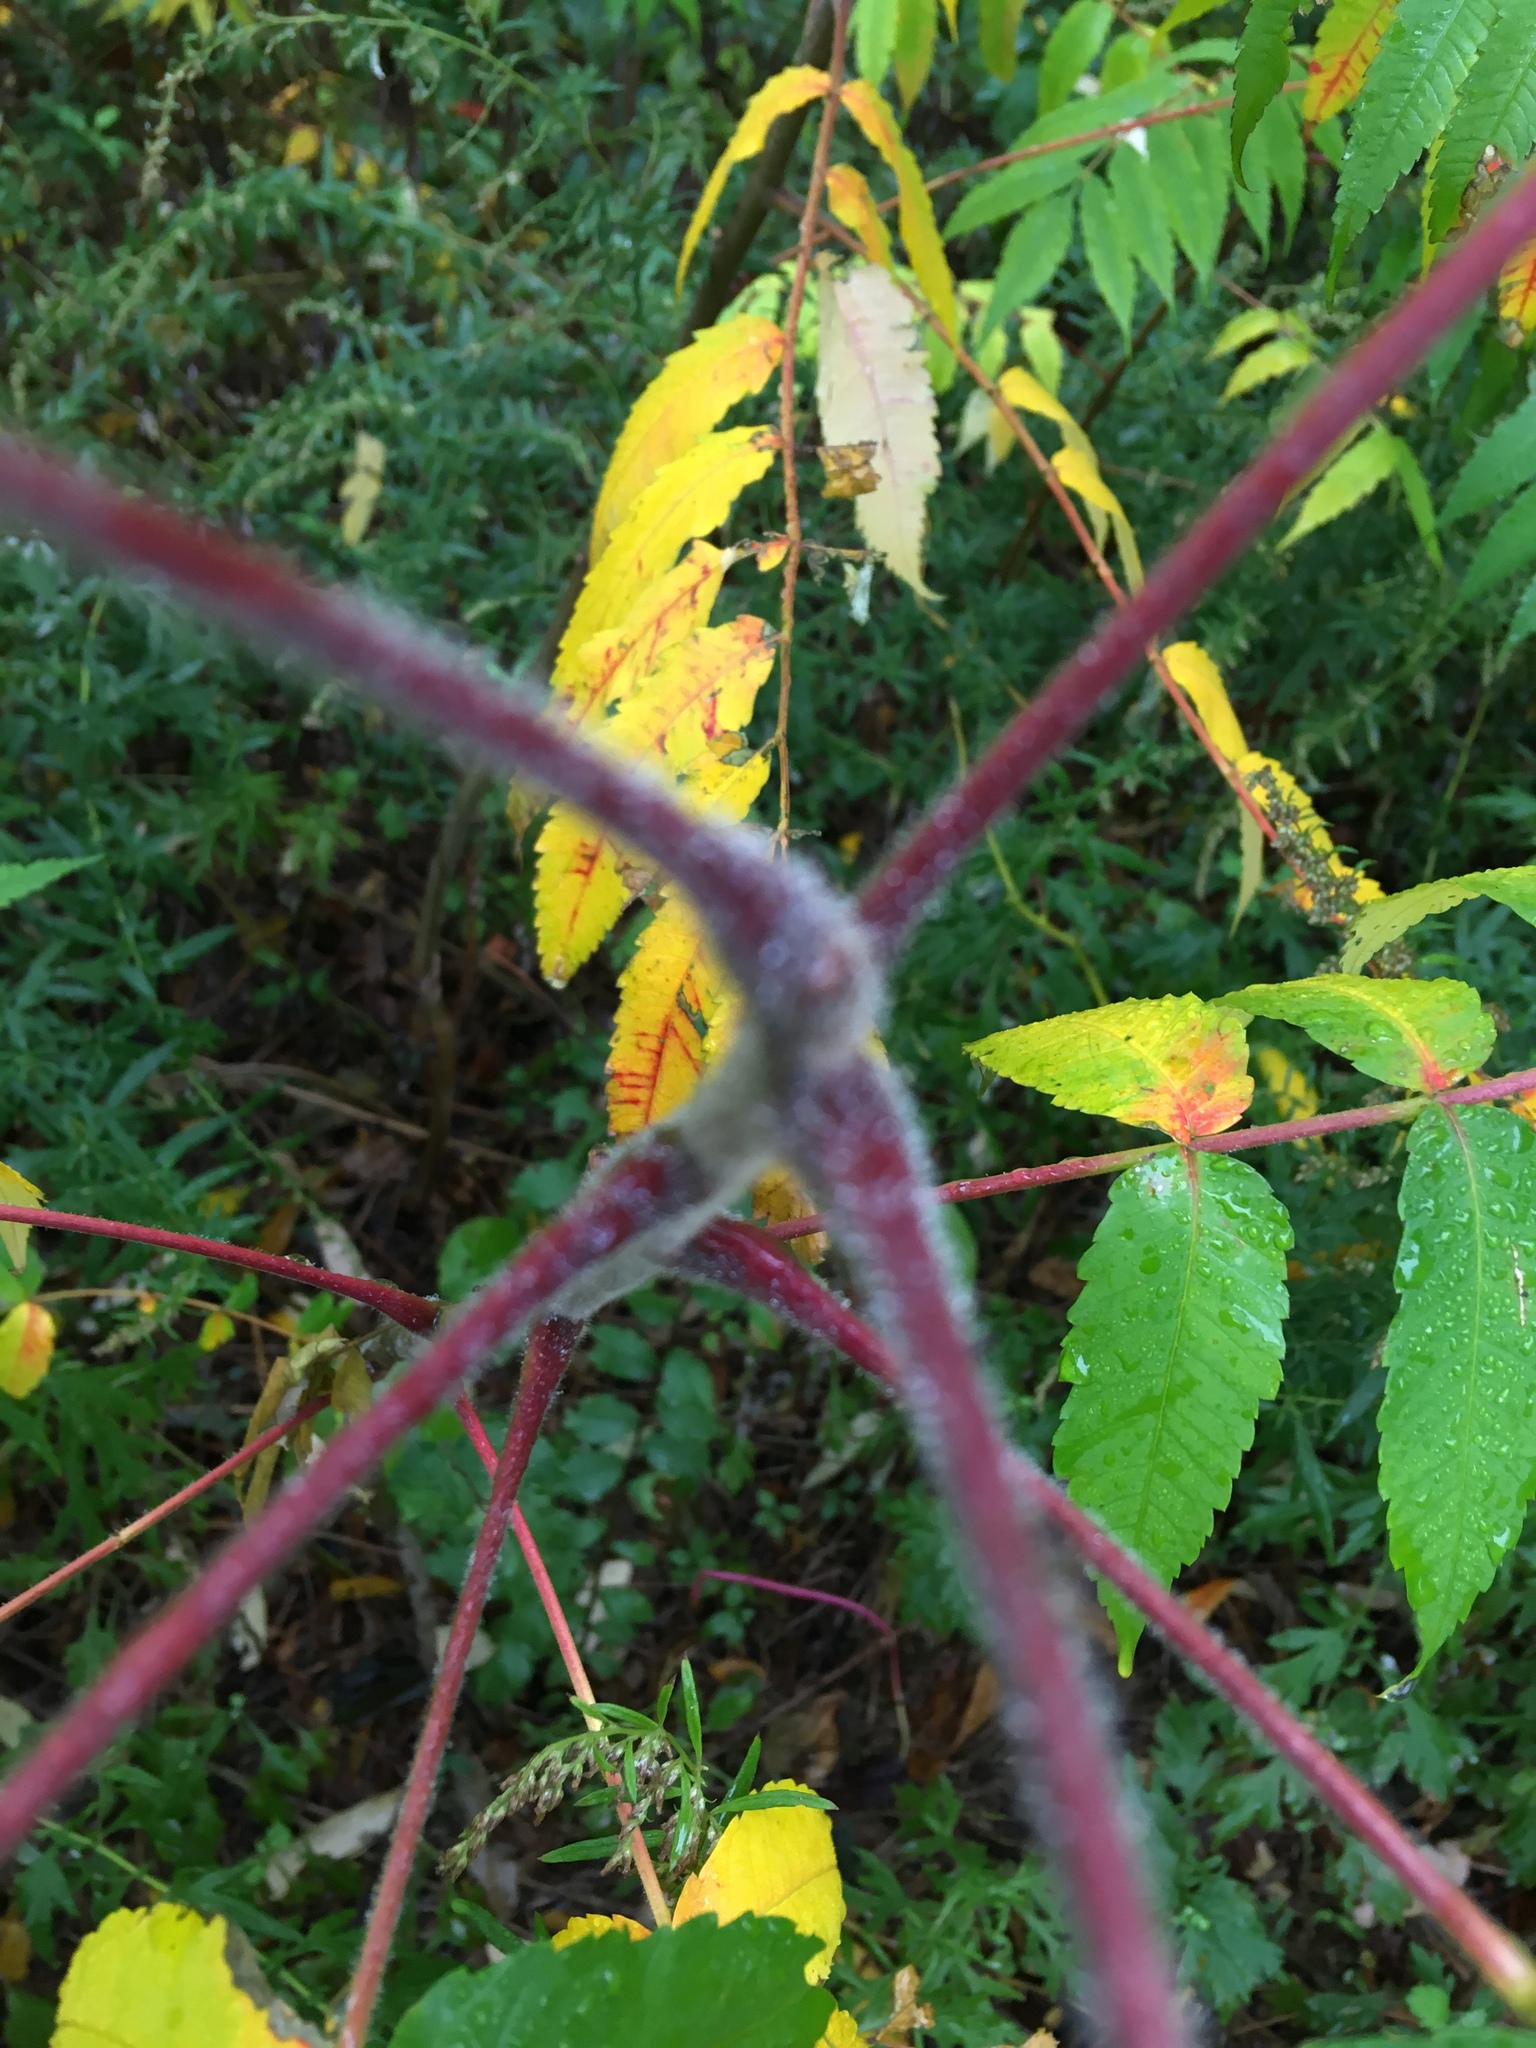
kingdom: Plantae
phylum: Tracheophyta
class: Magnoliopsida
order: Sapindales
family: Anacardiaceae
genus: Rhus
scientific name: Rhus typhina
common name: Staghorn sumac
